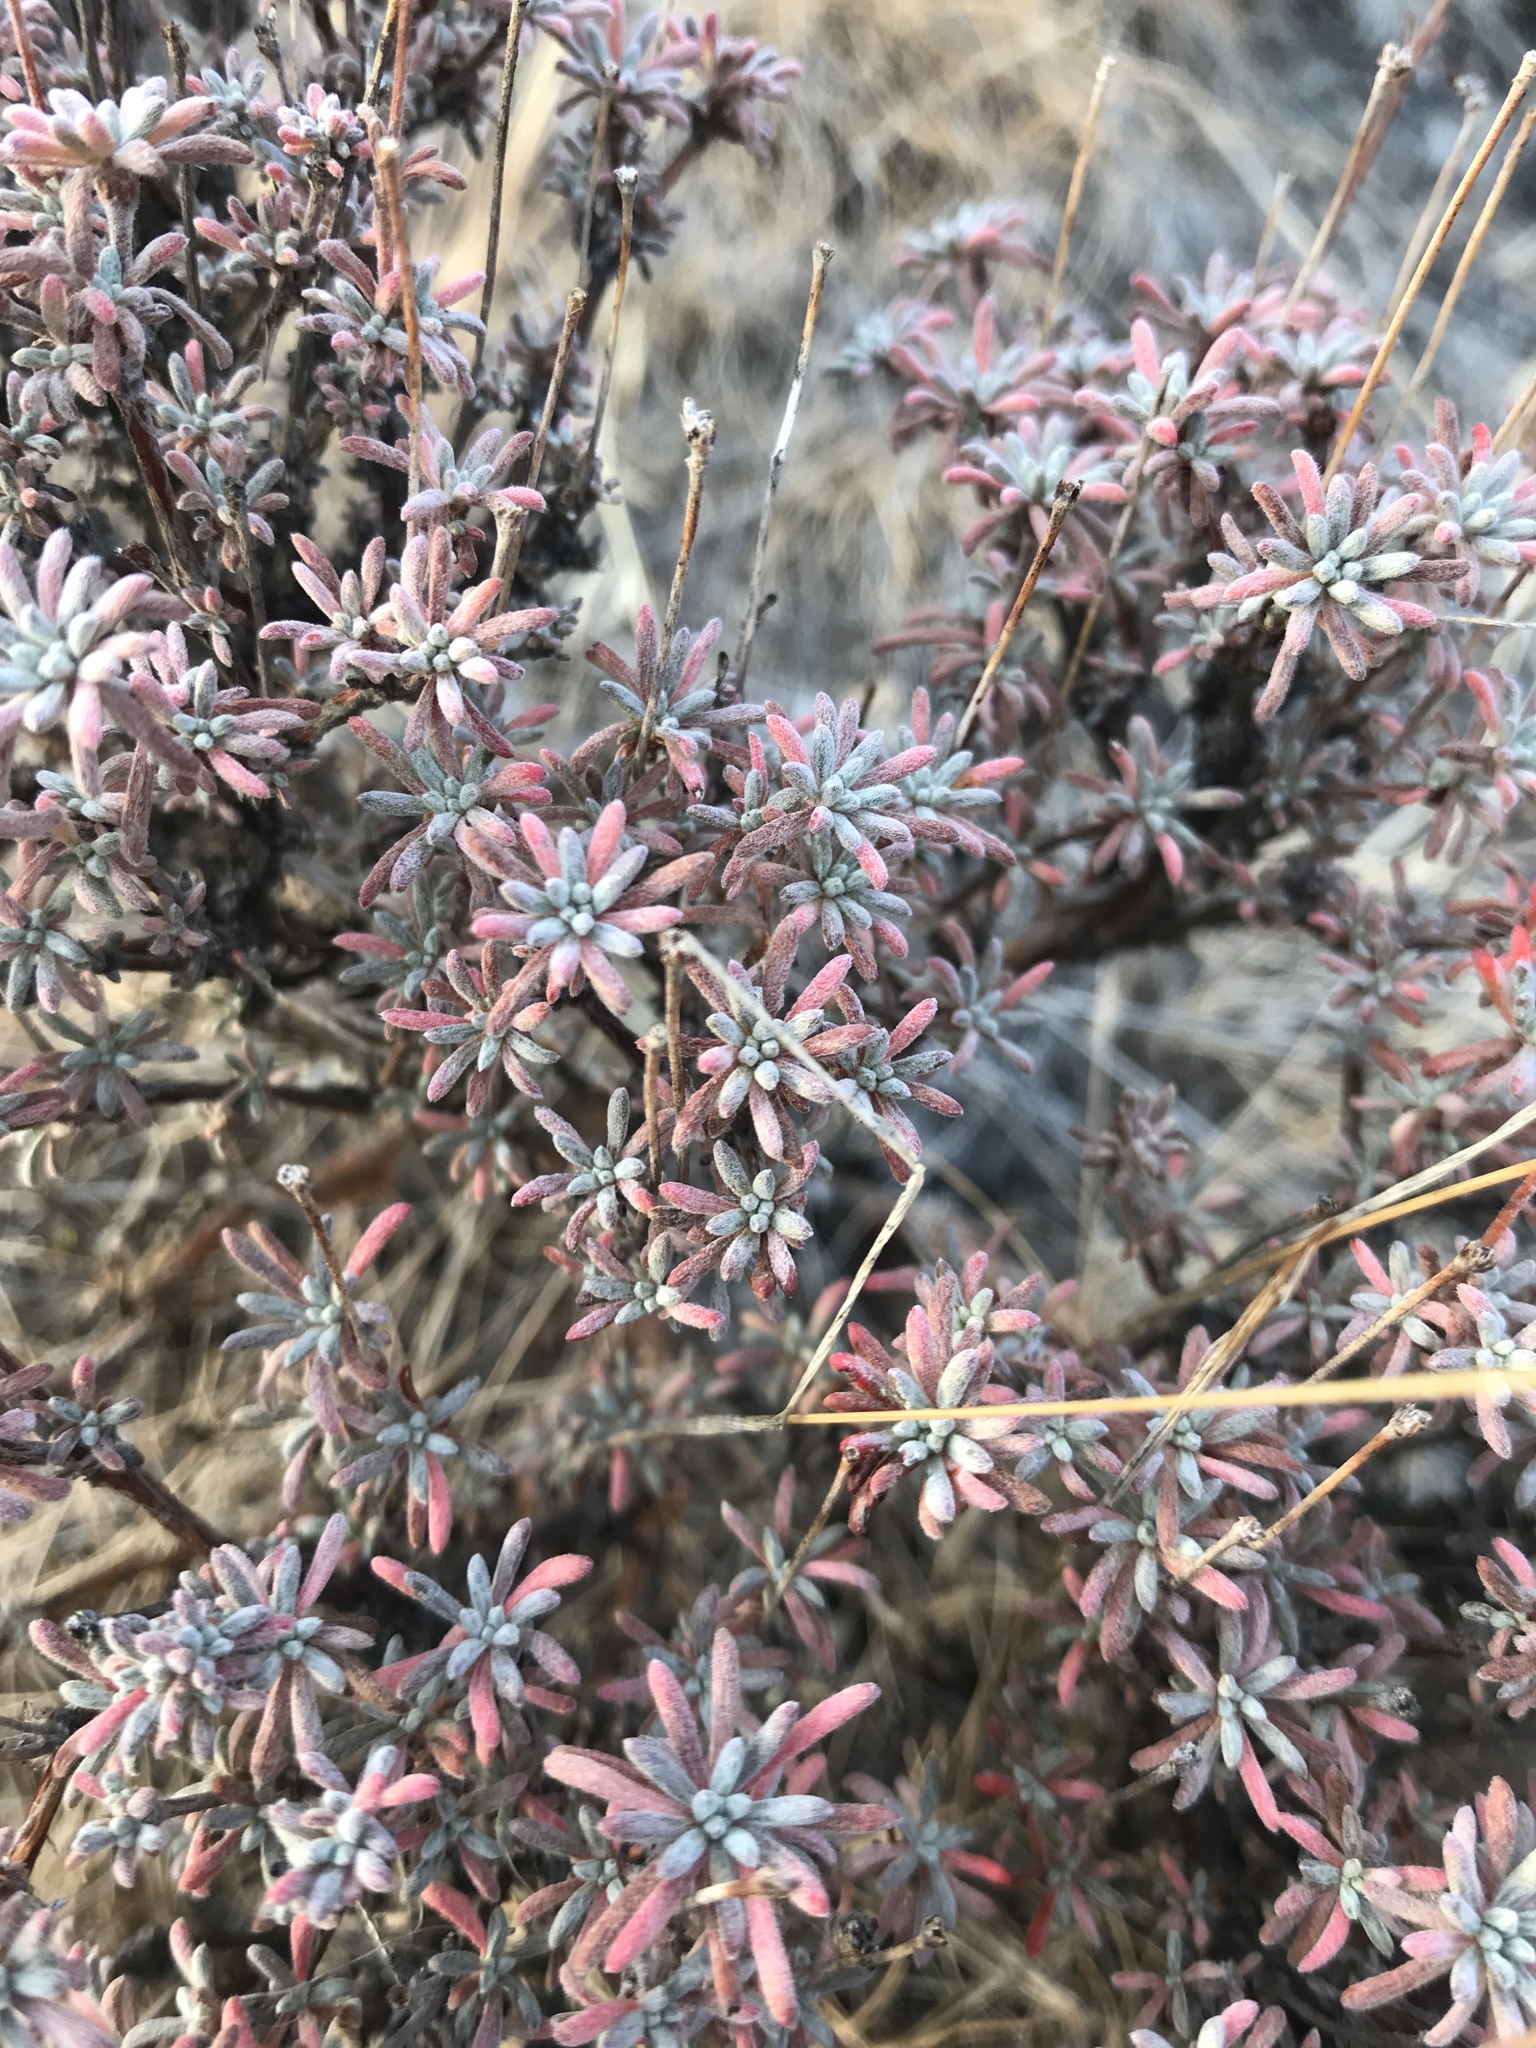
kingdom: Plantae
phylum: Tracheophyta
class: Magnoliopsida
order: Caryophyllales
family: Polygonaceae
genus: Eriogonum
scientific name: Eriogonum thymoides
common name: Thyme-leaf wild buckwheat
